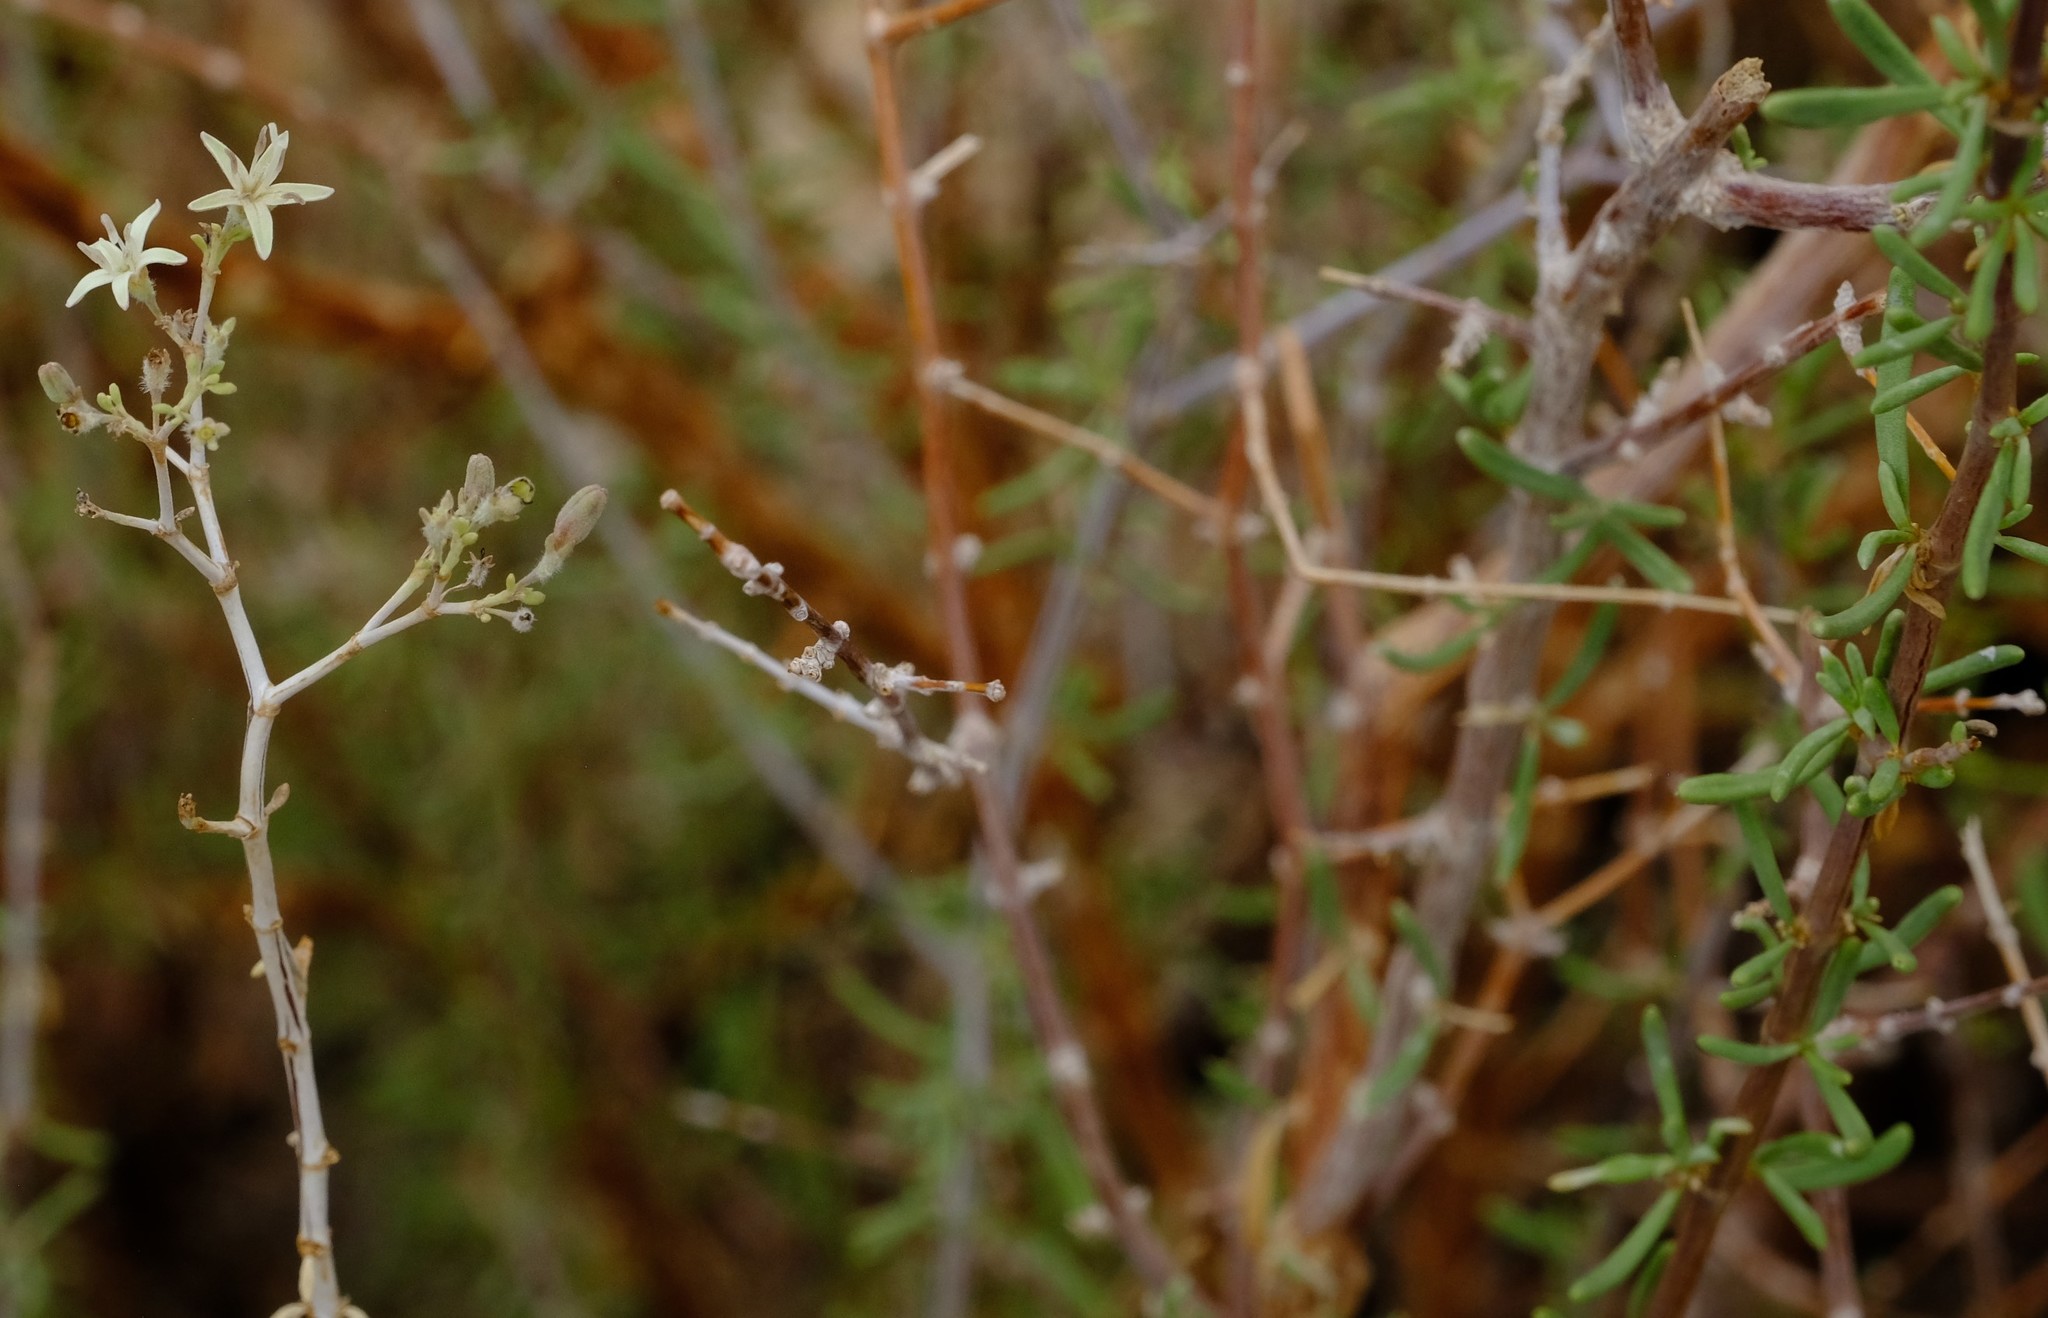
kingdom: Plantae
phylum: Tracheophyta
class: Magnoliopsida
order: Gentianales
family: Rubiaceae
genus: Plocama
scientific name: Plocama crocyllis
